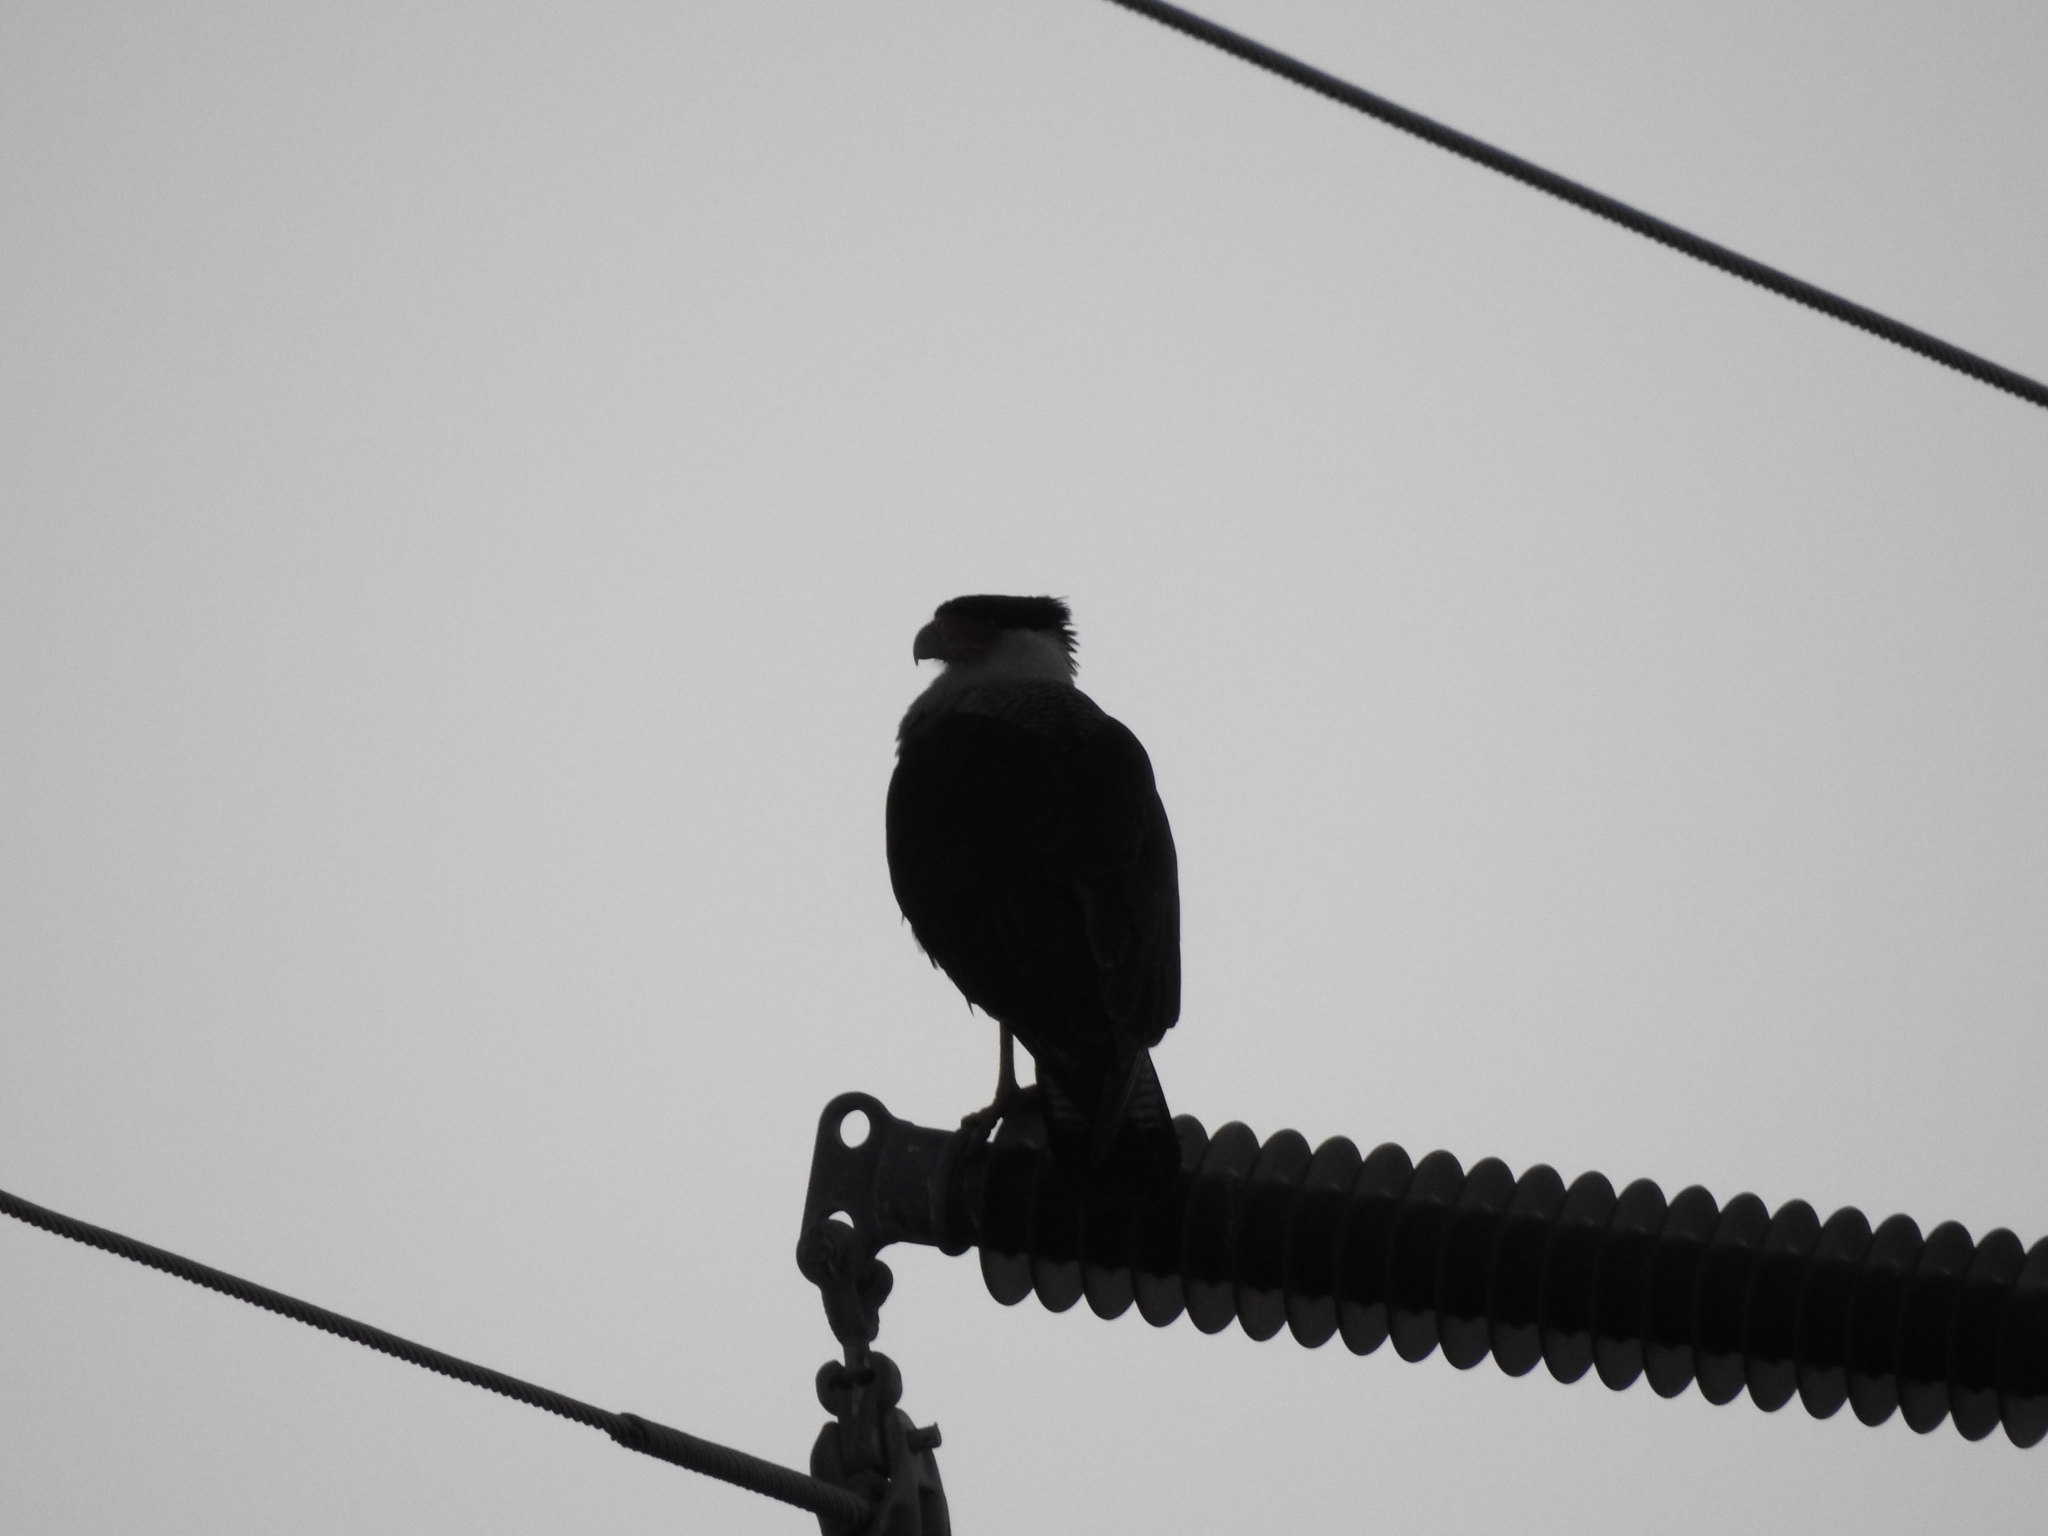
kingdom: Animalia
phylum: Chordata
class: Aves
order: Falconiformes
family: Falconidae
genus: Caracara
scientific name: Caracara plancus
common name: Southern caracara
